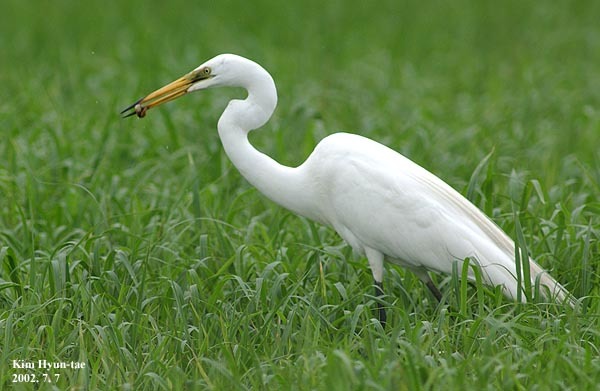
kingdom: Animalia
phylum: Chordata
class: Aves
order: Pelecaniformes
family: Ardeidae
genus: Ardea
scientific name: Ardea modesta
